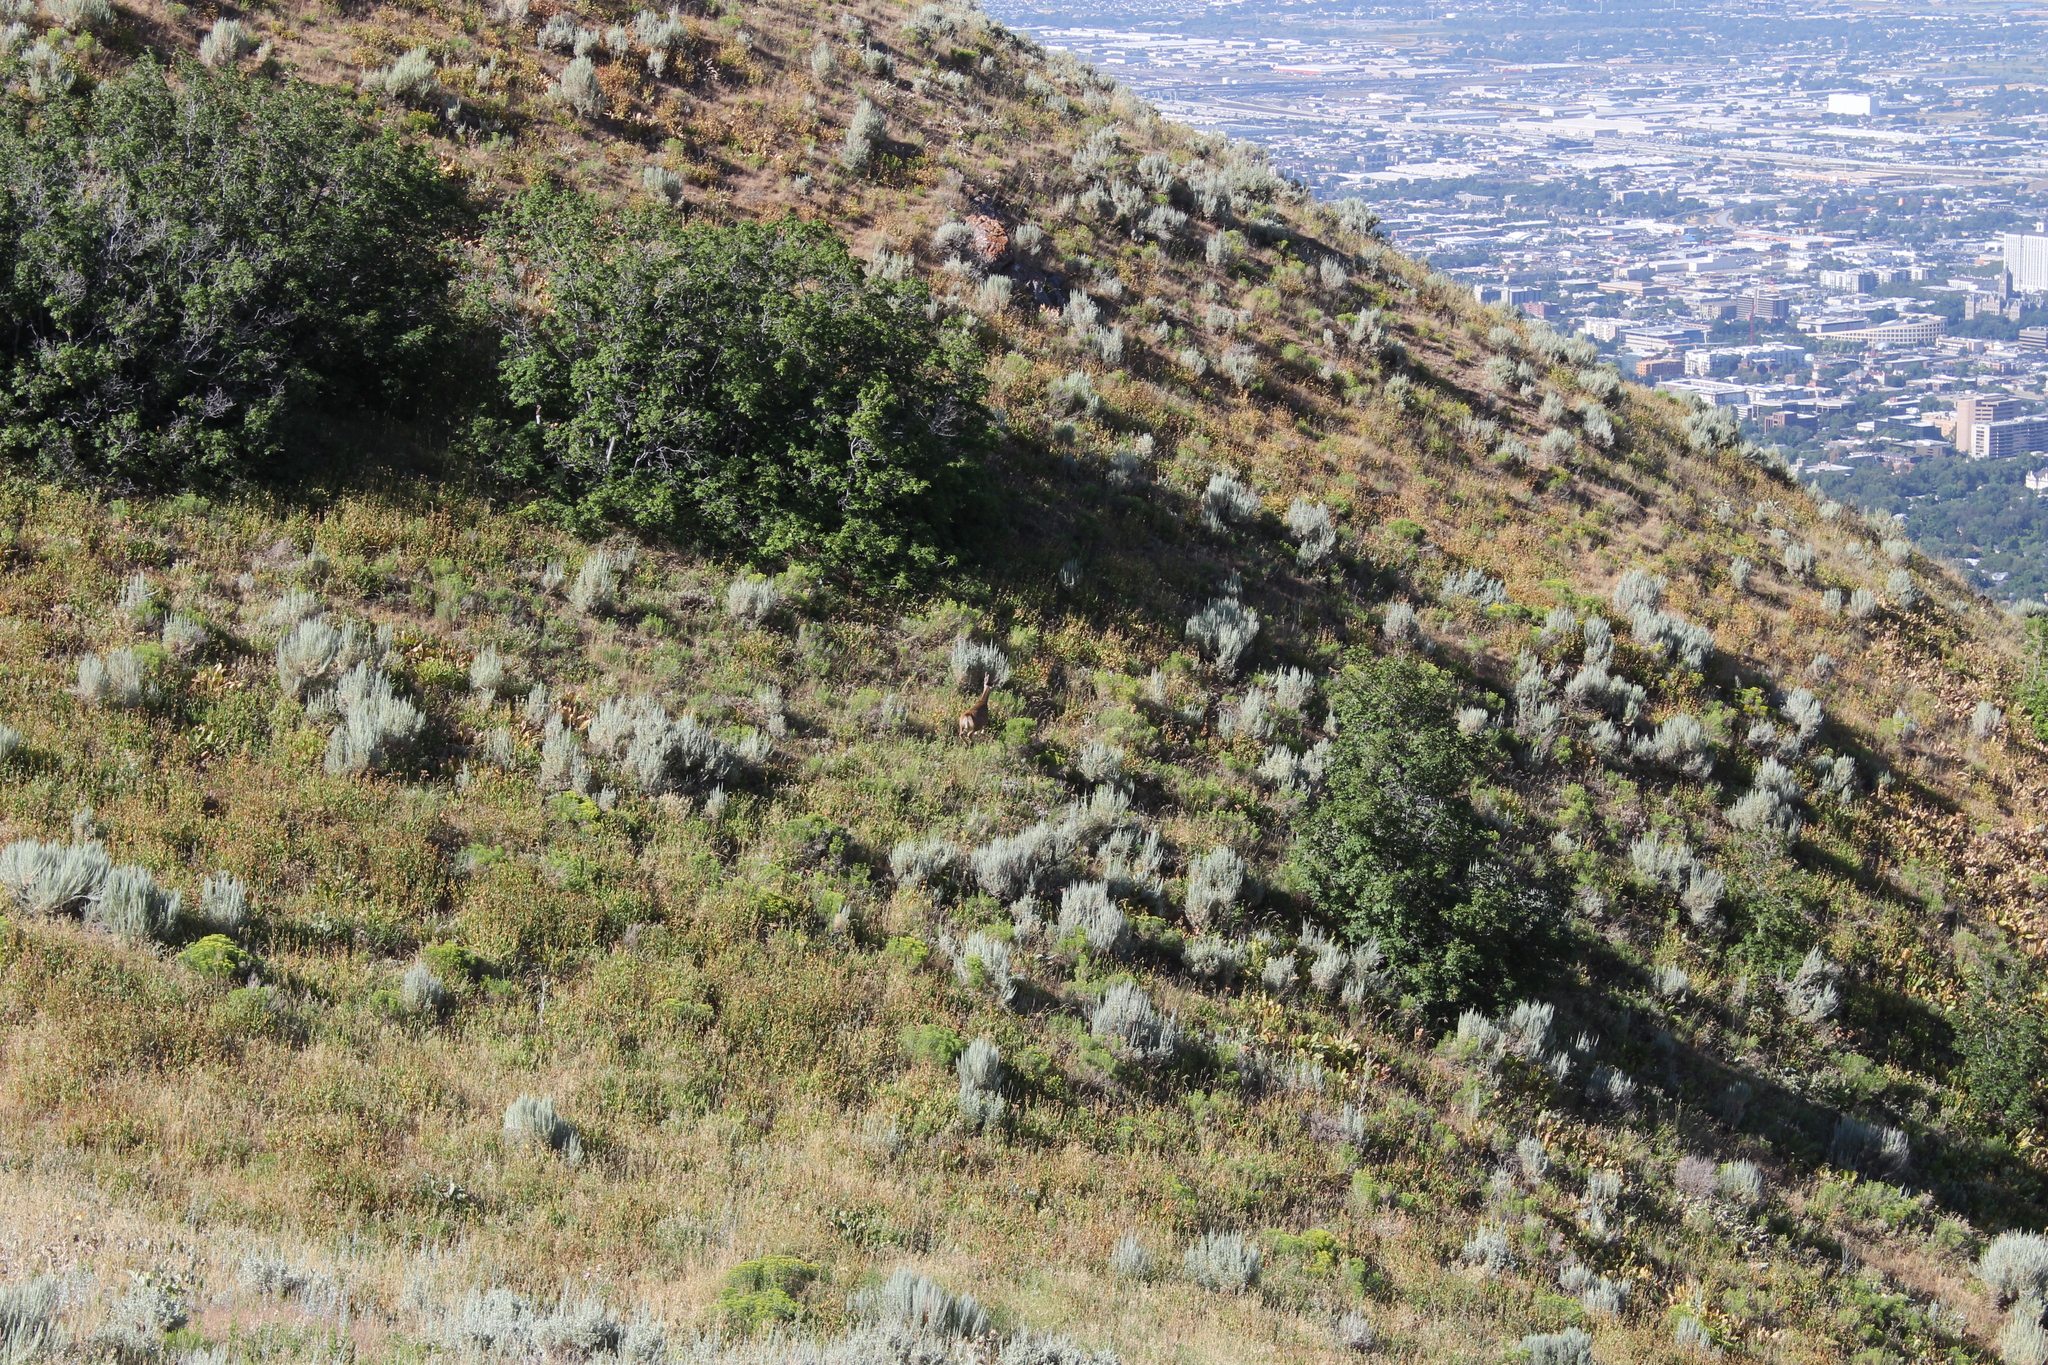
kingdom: Animalia
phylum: Chordata
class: Mammalia
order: Artiodactyla
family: Cervidae
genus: Odocoileus
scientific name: Odocoileus hemionus
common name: Mule deer
